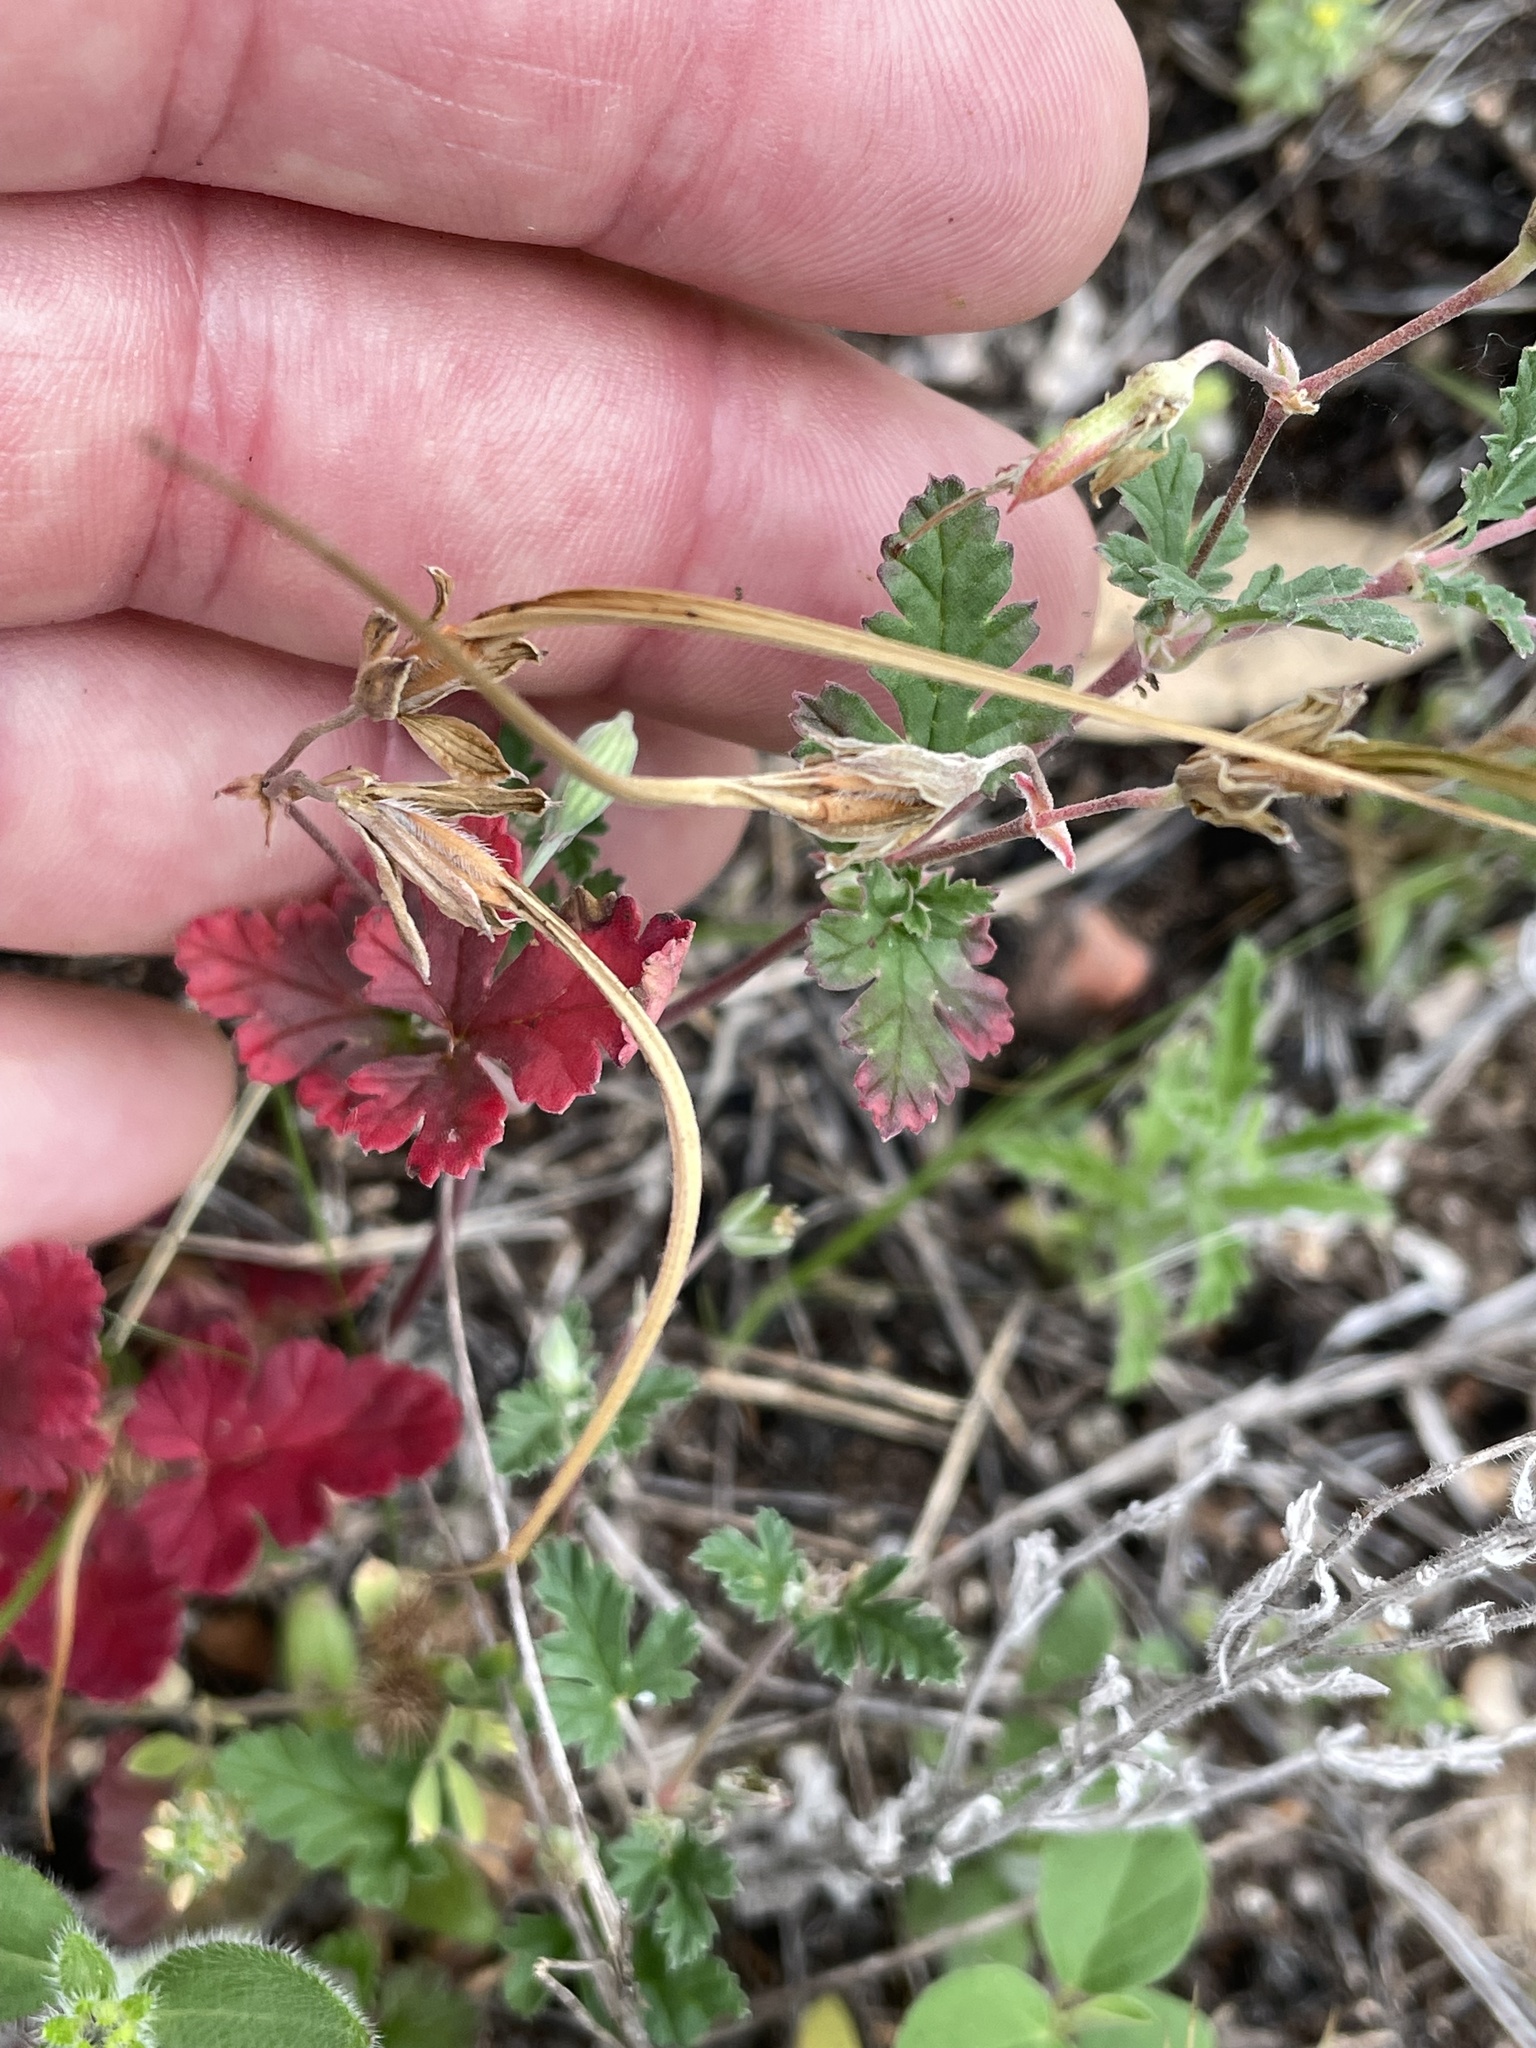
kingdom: Plantae
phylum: Tracheophyta
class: Magnoliopsida
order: Geraniales
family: Geraniaceae
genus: Erodium
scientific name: Erodium texanum
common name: Texas stork's-bill
